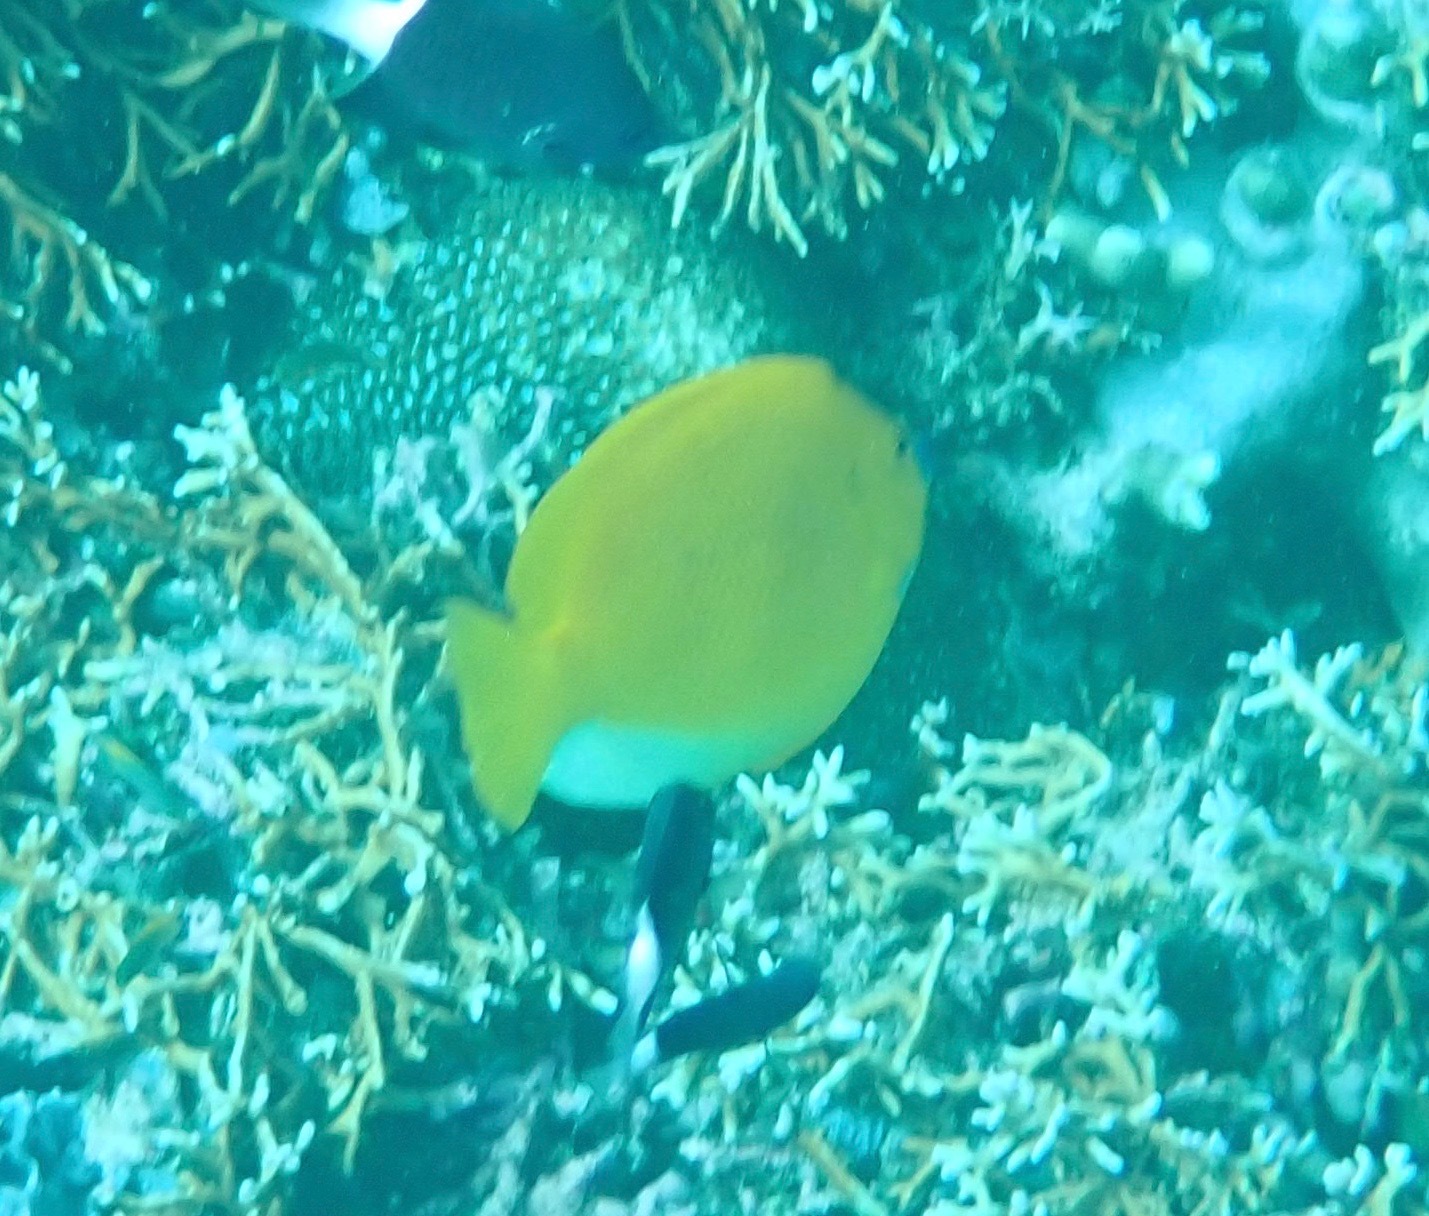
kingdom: Animalia
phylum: Chordata
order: Perciformes
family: Pomacanthidae
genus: Apolemichthys
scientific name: Apolemichthys trimaculatus
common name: Threespot angelfish
